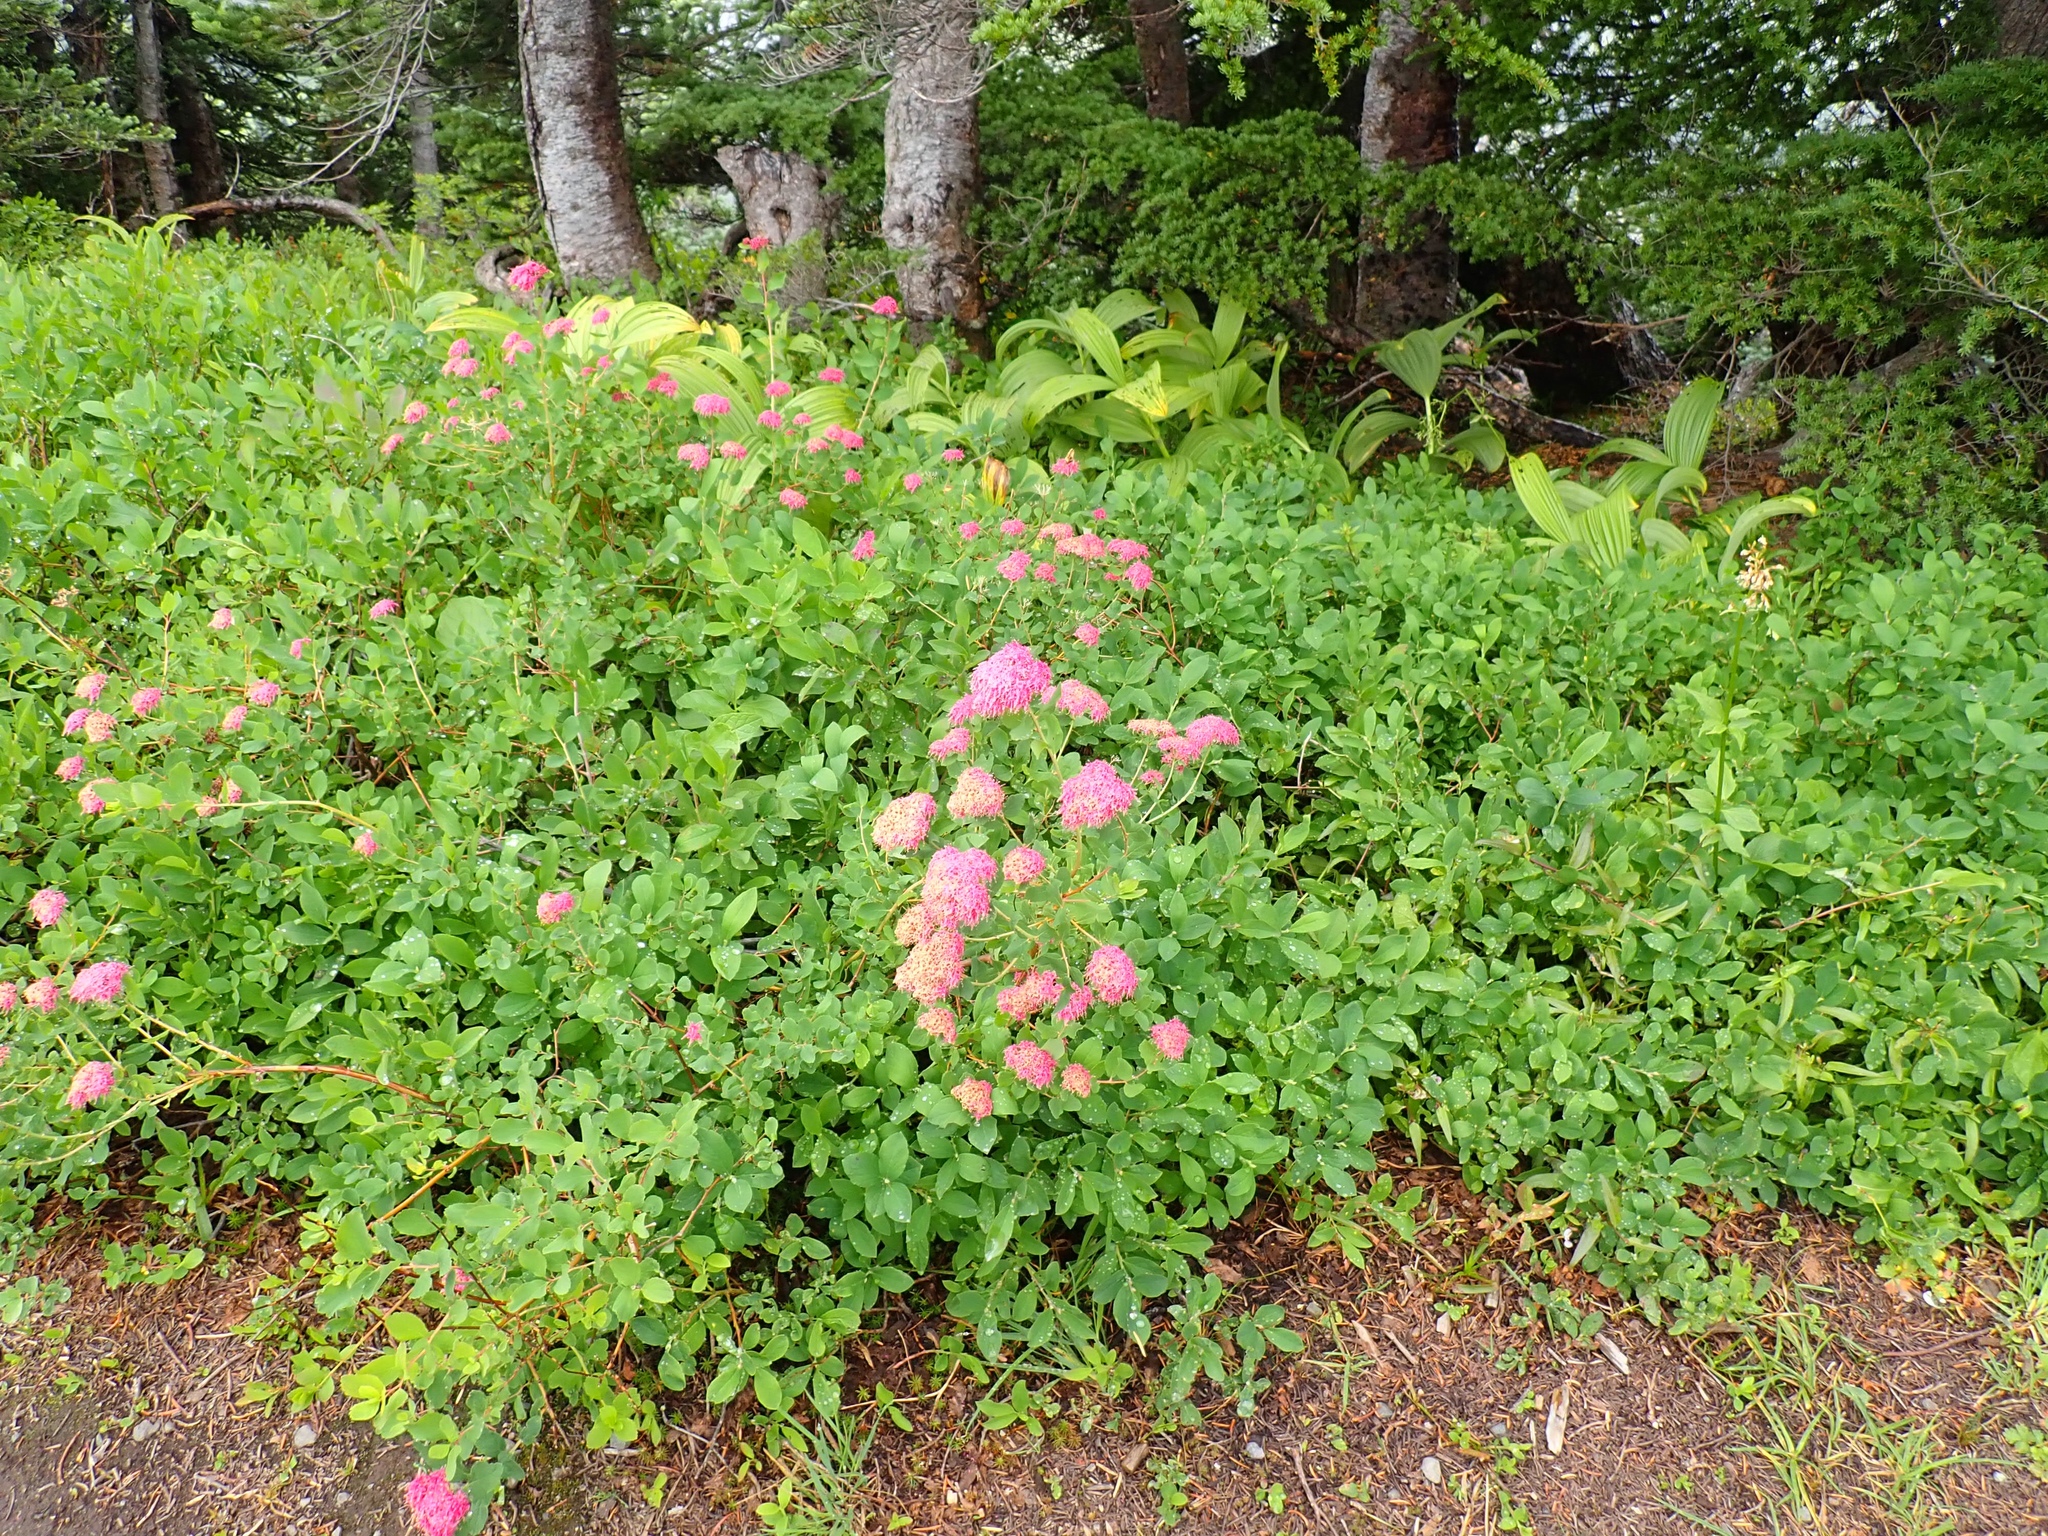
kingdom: Plantae
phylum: Tracheophyta
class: Magnoliopsida
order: Rosales
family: Rosaceae
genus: Spiraea
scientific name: Spiraea splendens
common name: Subalpine meadowsweet
